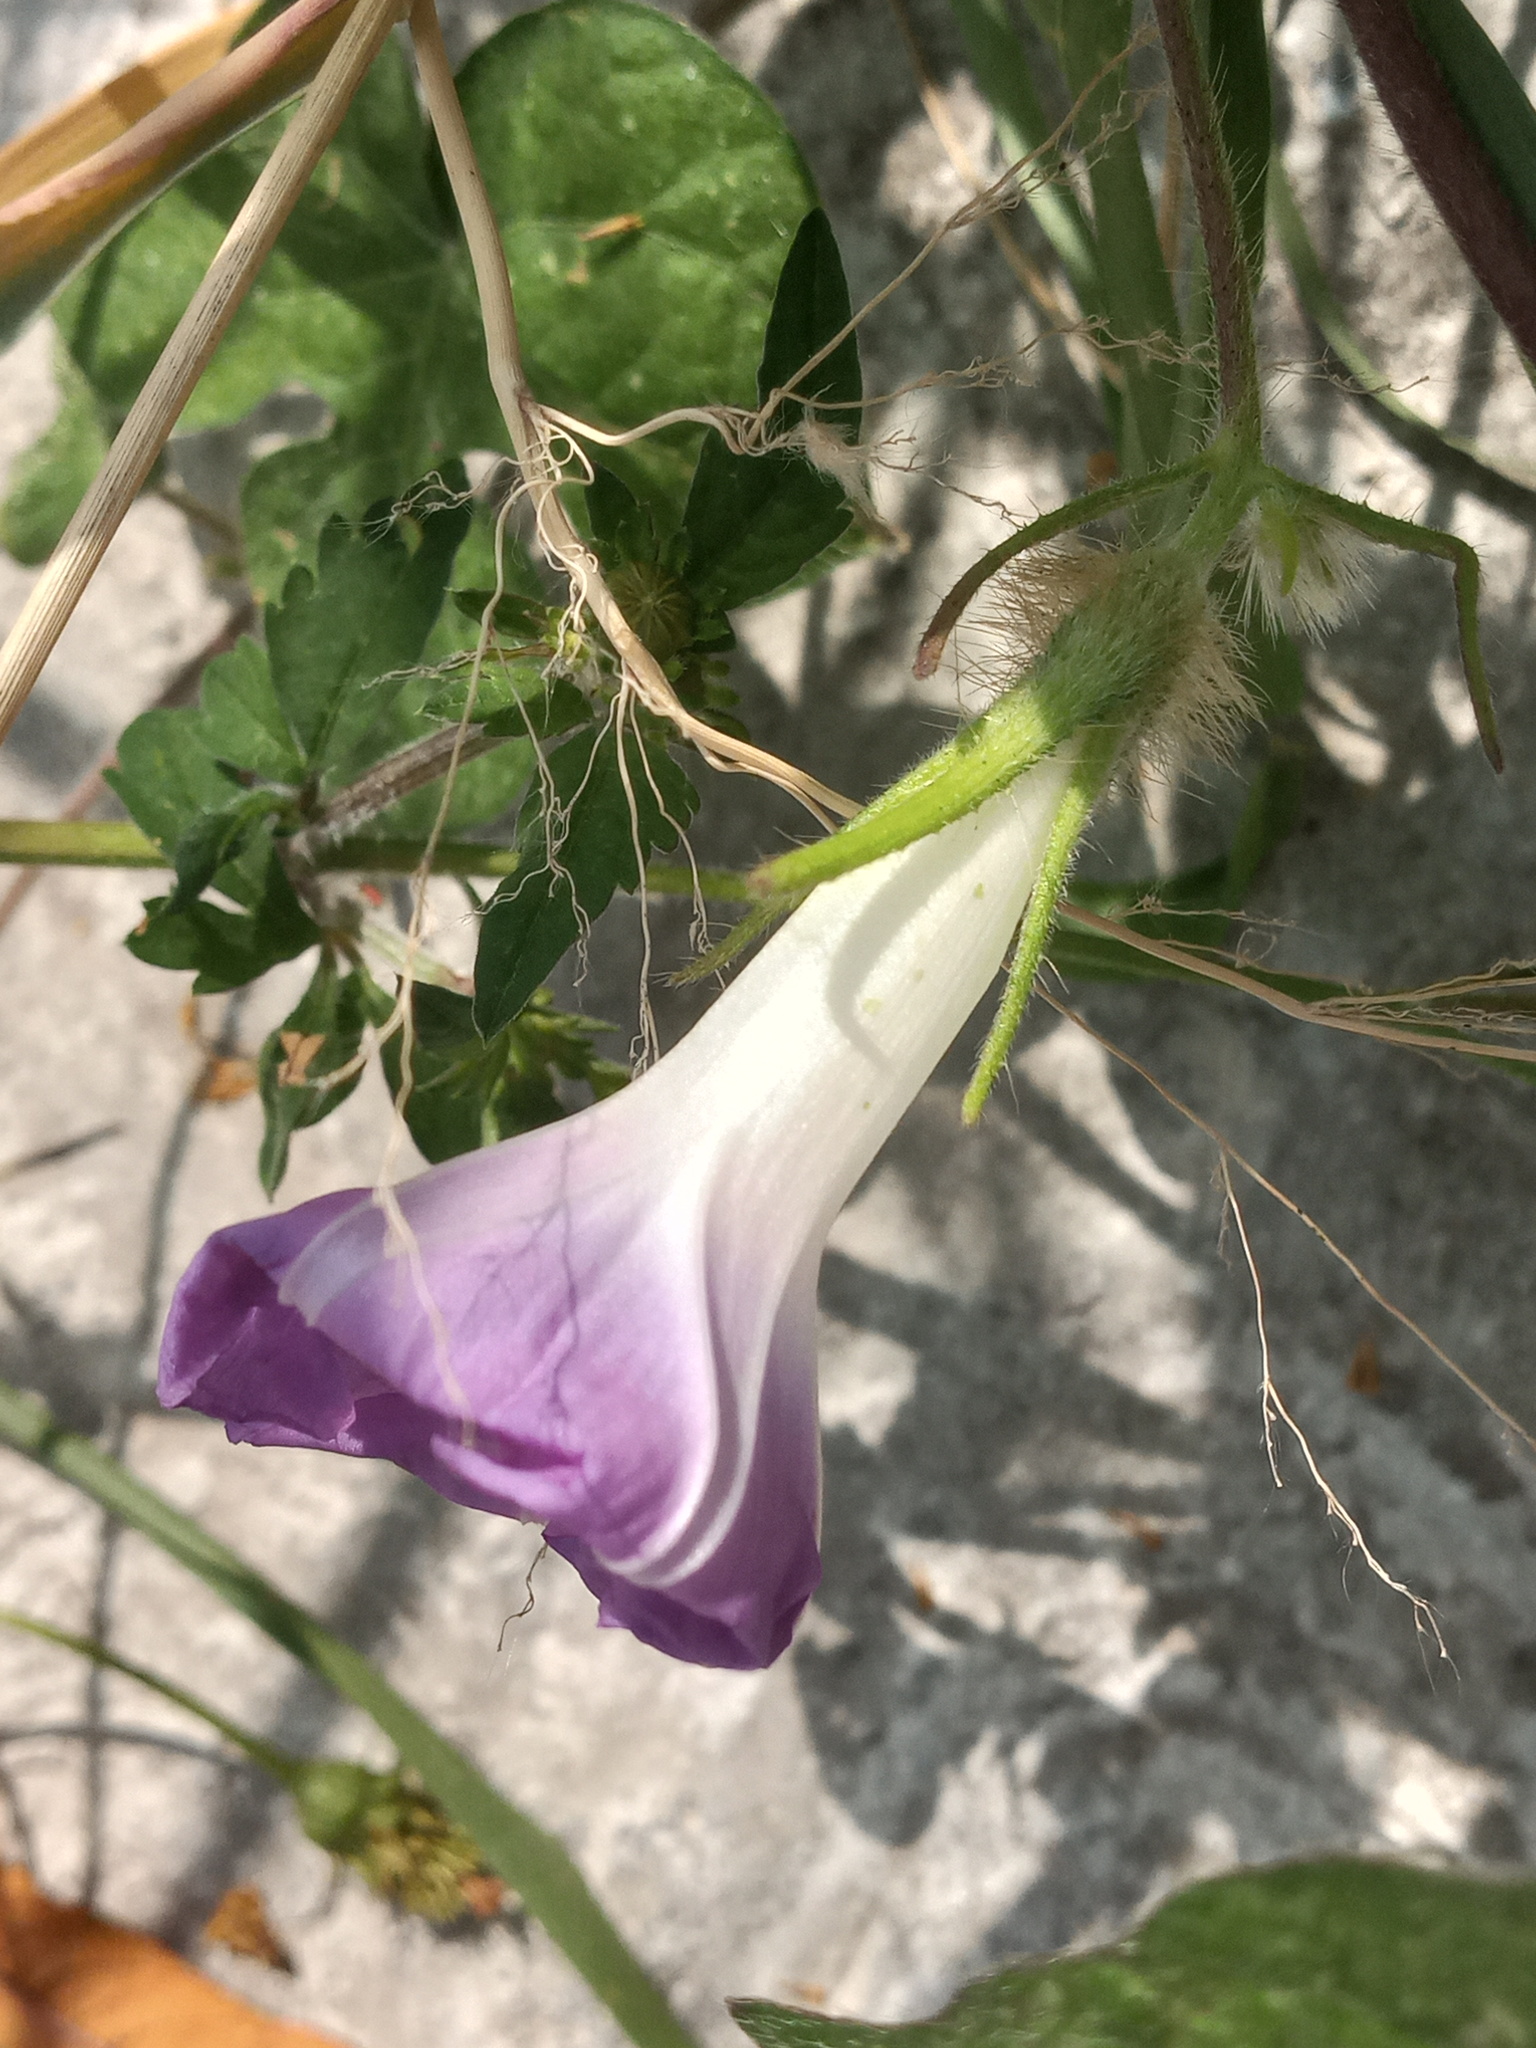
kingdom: Plantae
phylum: Tracheophyta
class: Magnoliopsida
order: Solanales
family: Convolvulaceae
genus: Ipomoea
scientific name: Ipomoea hederacea
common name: Ivy-leaved morning-glory
